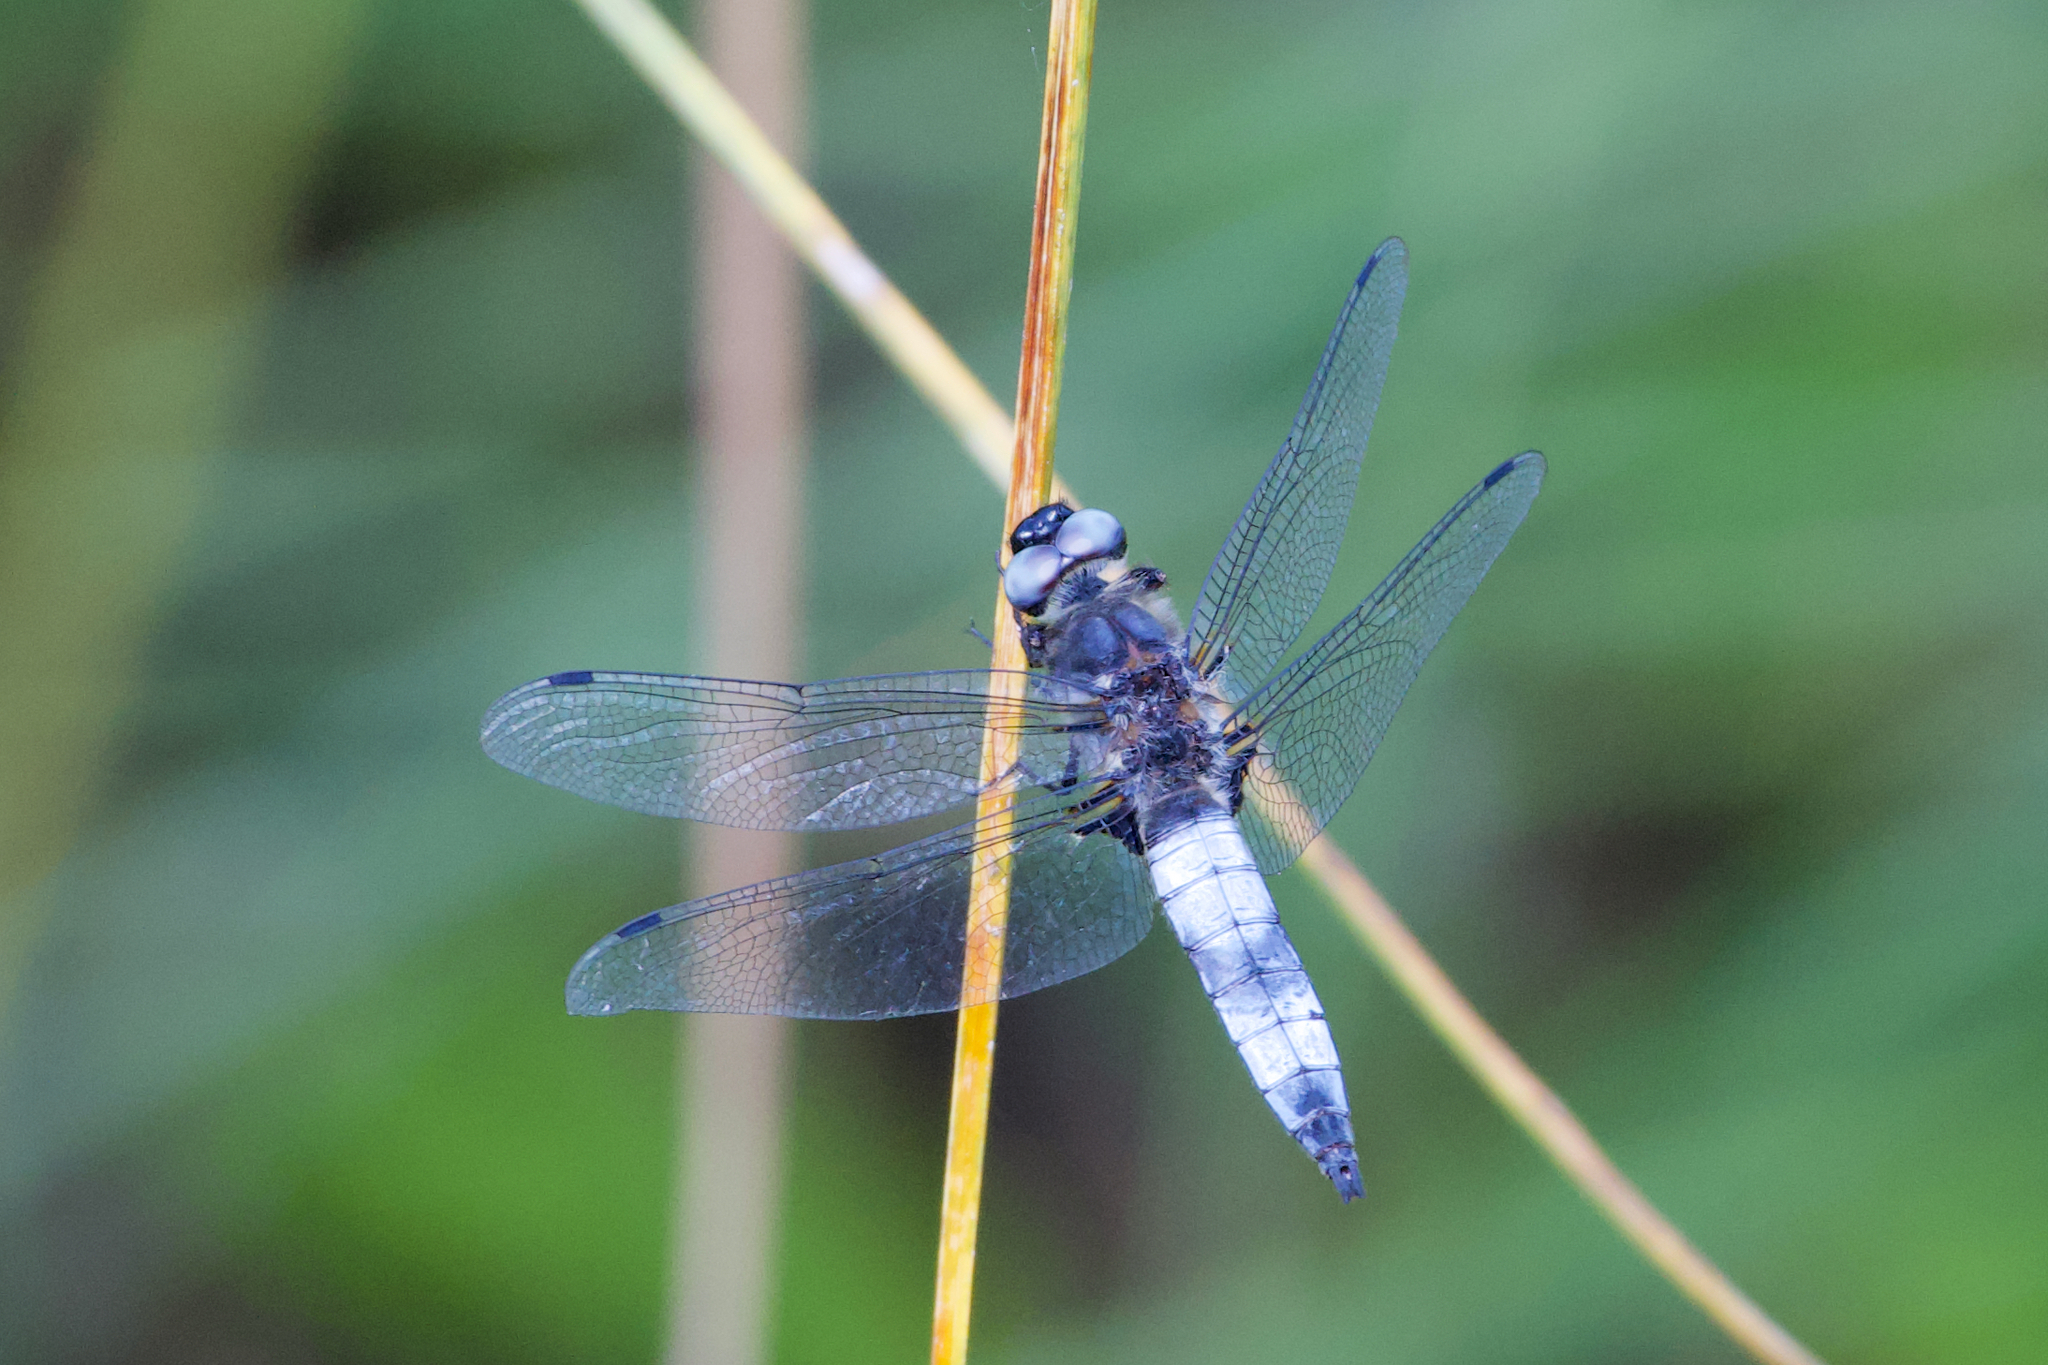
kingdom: Animalia
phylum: Arthropoda
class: Insecta
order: Odonata
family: Libellulidae
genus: Libellula
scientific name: Libellula fulva
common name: Blue chaser
